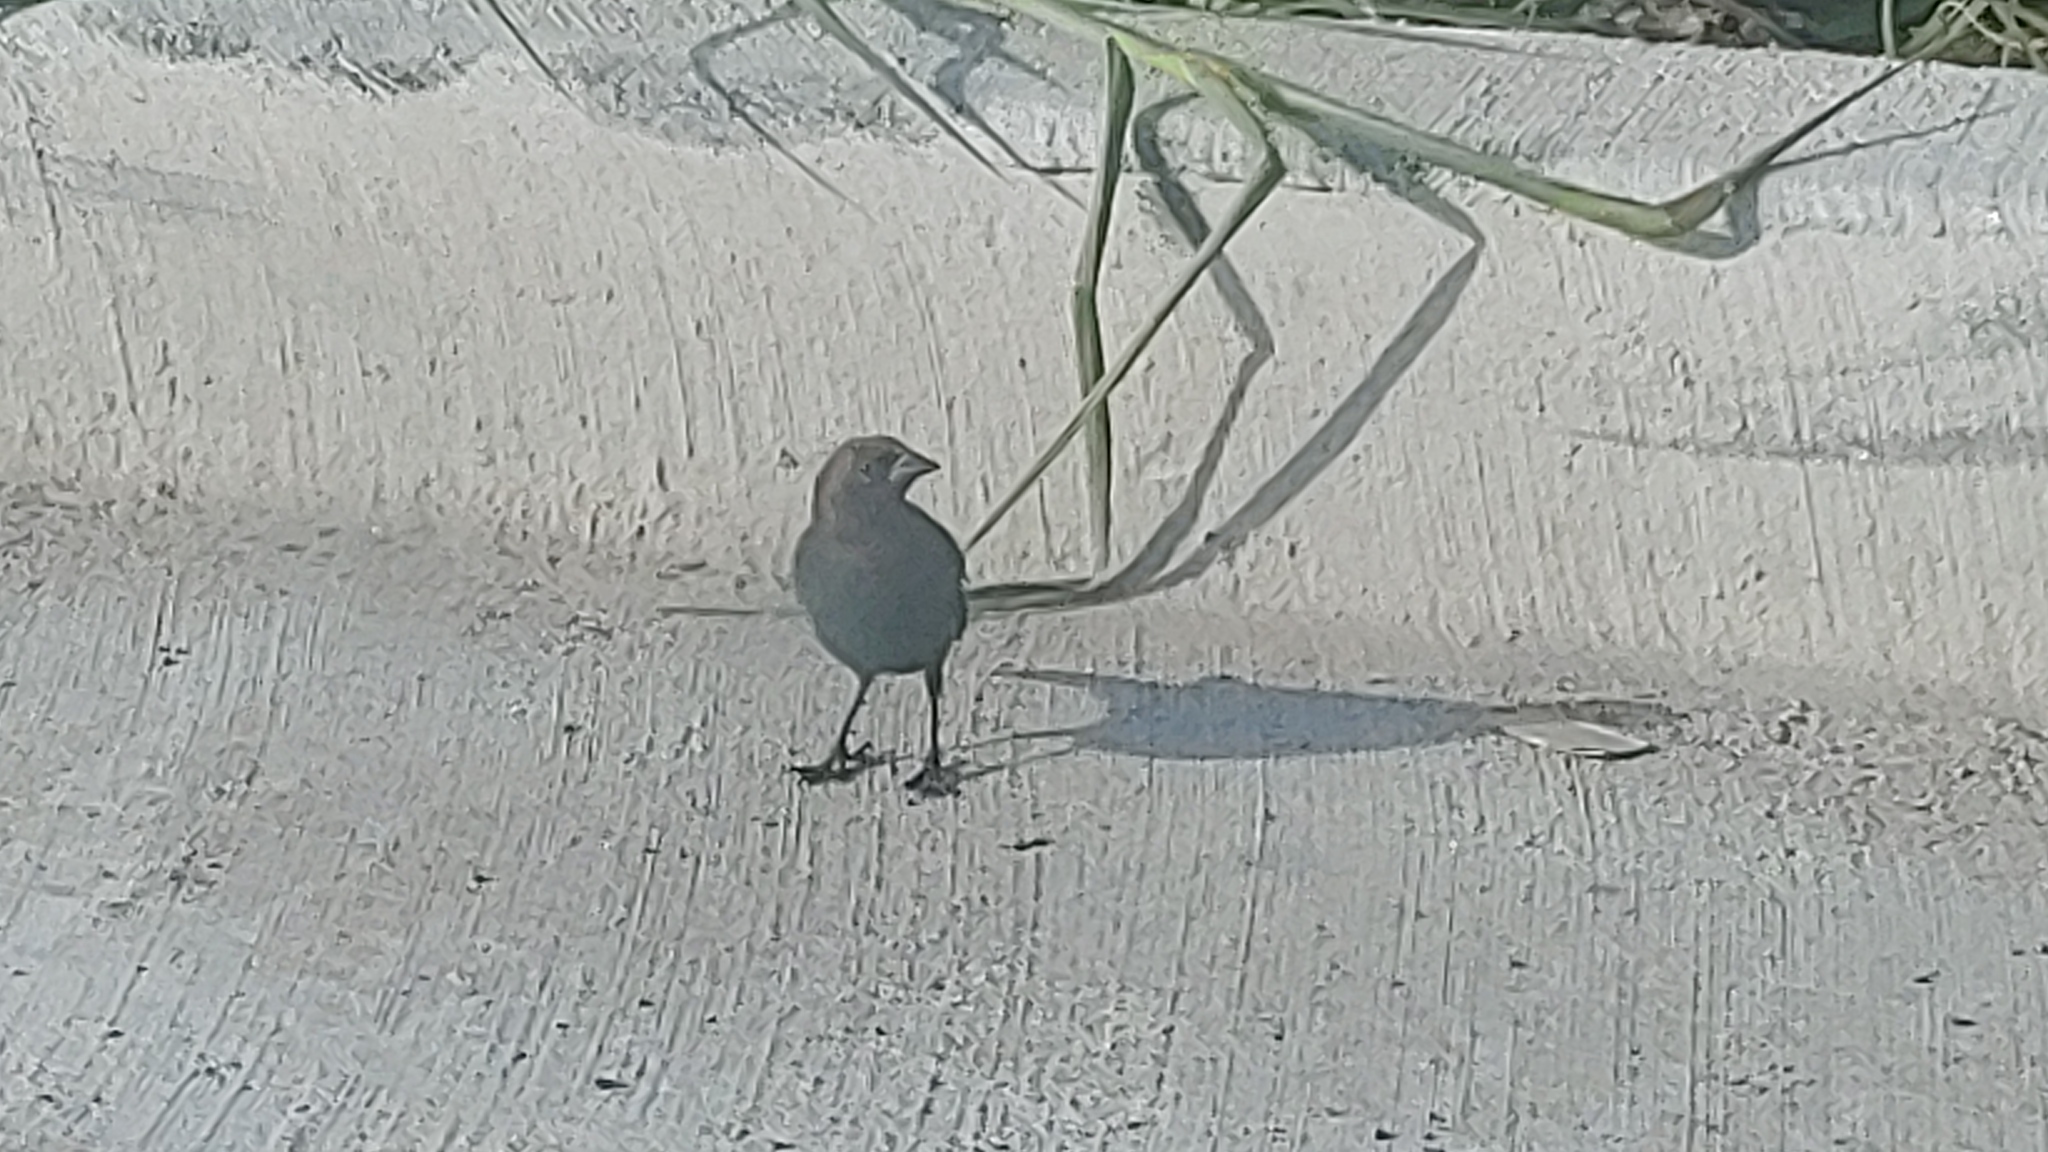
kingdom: Animalia
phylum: Chordata
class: Aves
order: Passeriformes
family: Icteridae
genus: Molothrus
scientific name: Molothrus ater
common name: Brown-headed cowbird
